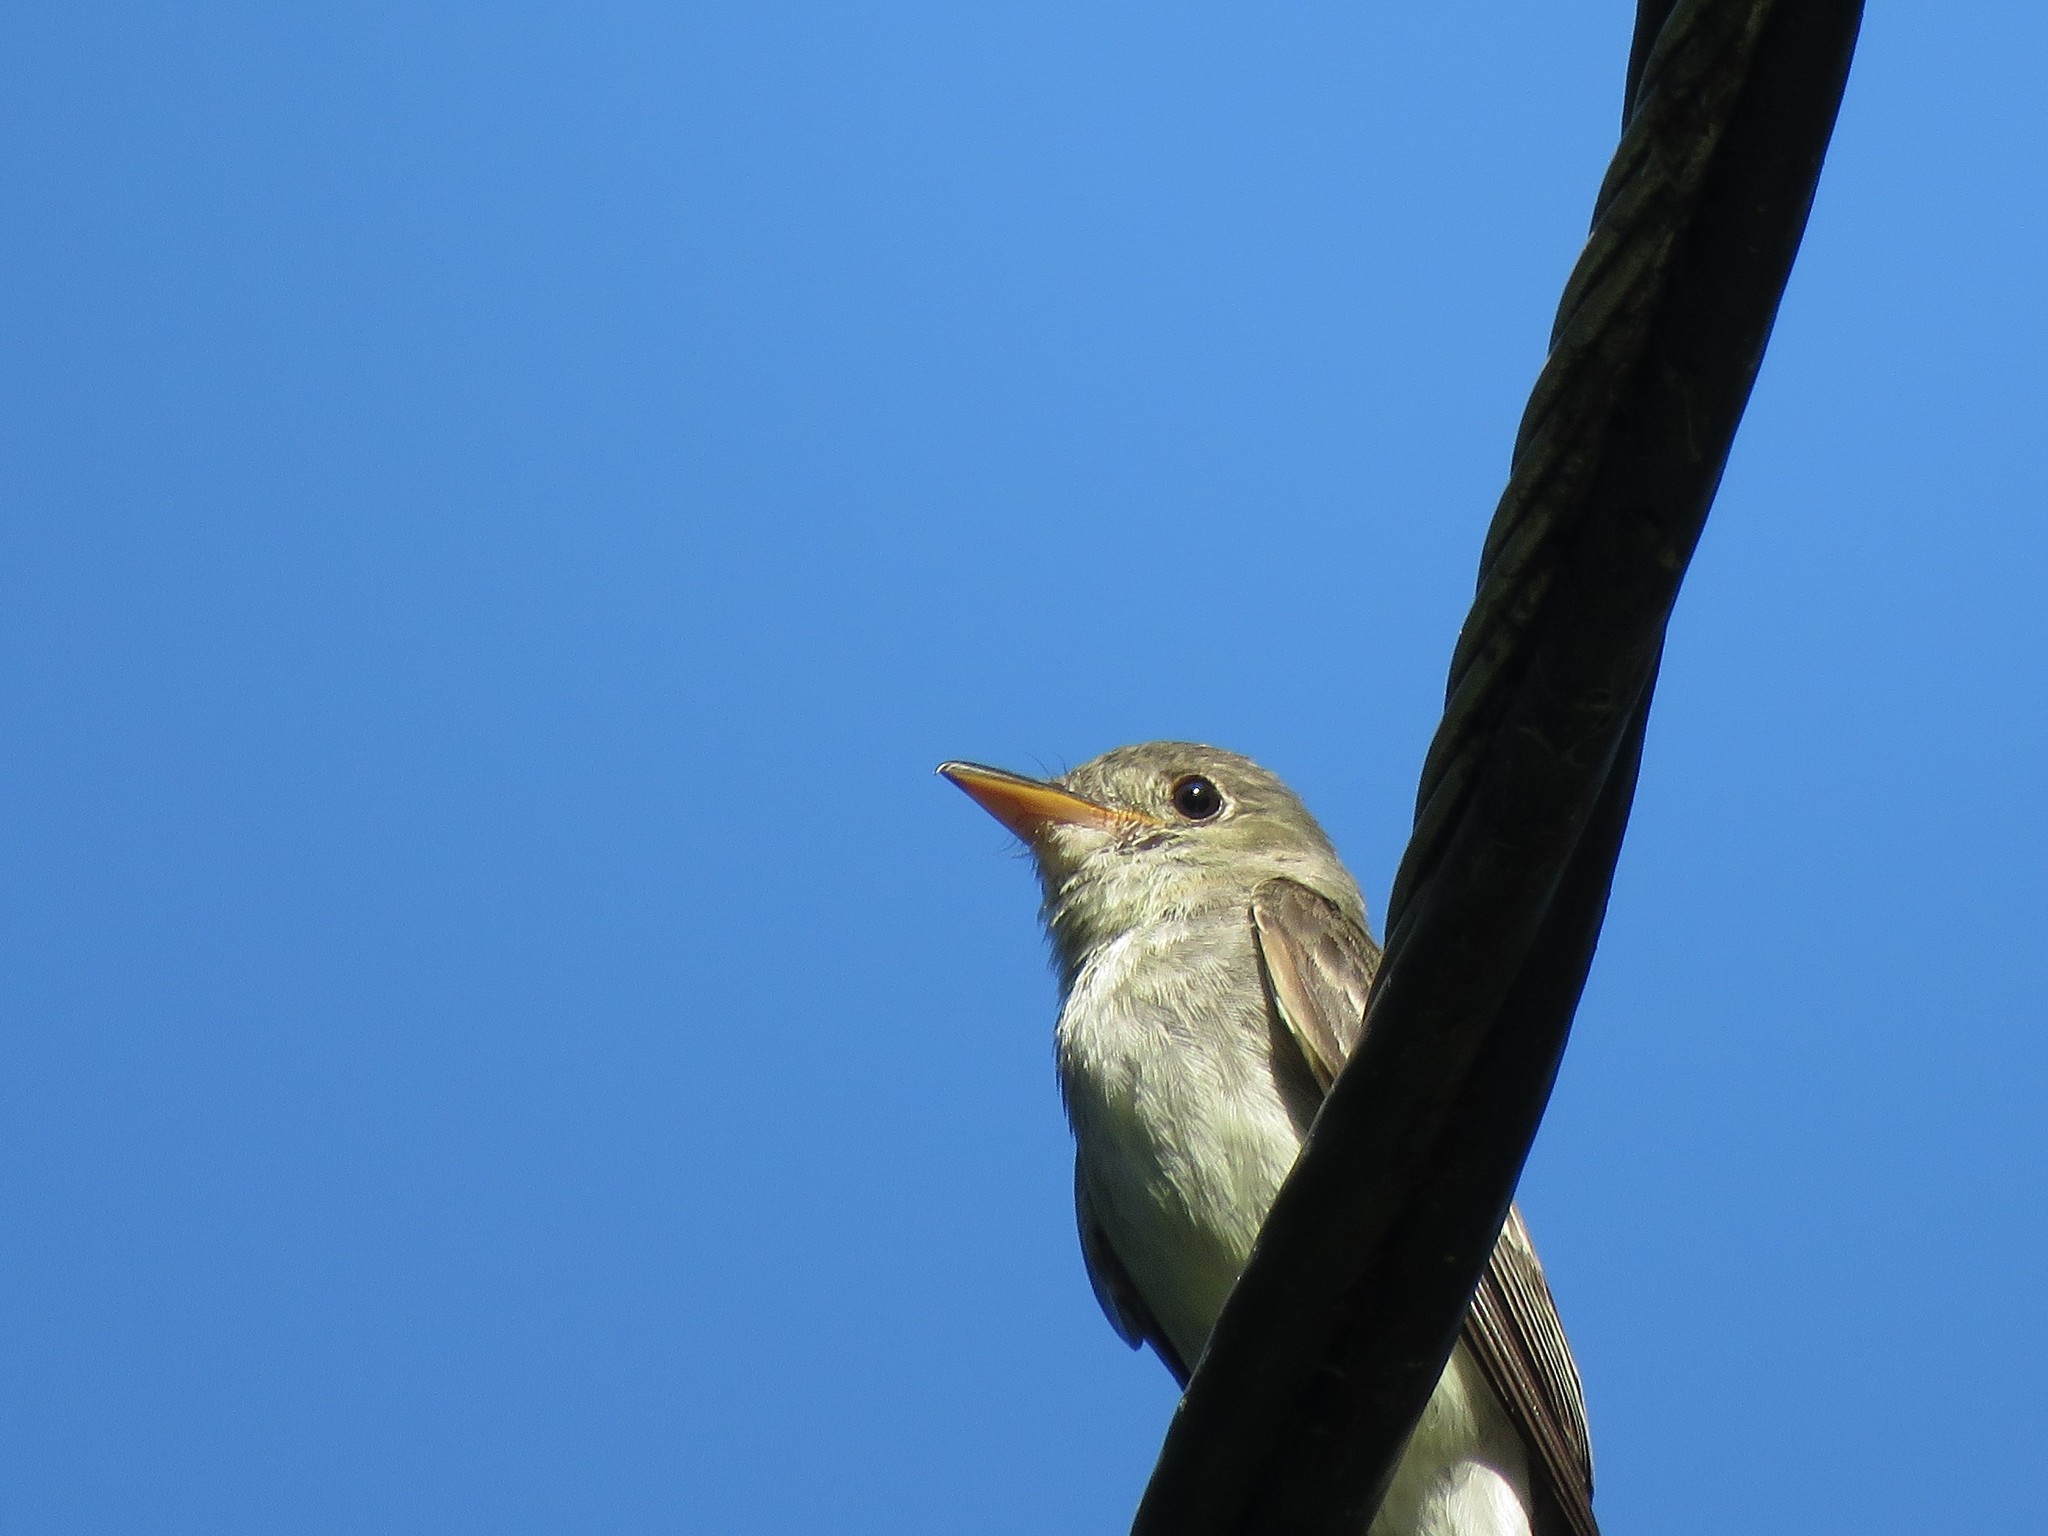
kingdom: Animalia
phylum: Chordata
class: Aves
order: Passeriformes
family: Tyrannidae
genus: Contopus
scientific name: Contopus virens
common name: Eastern wood-pewee
